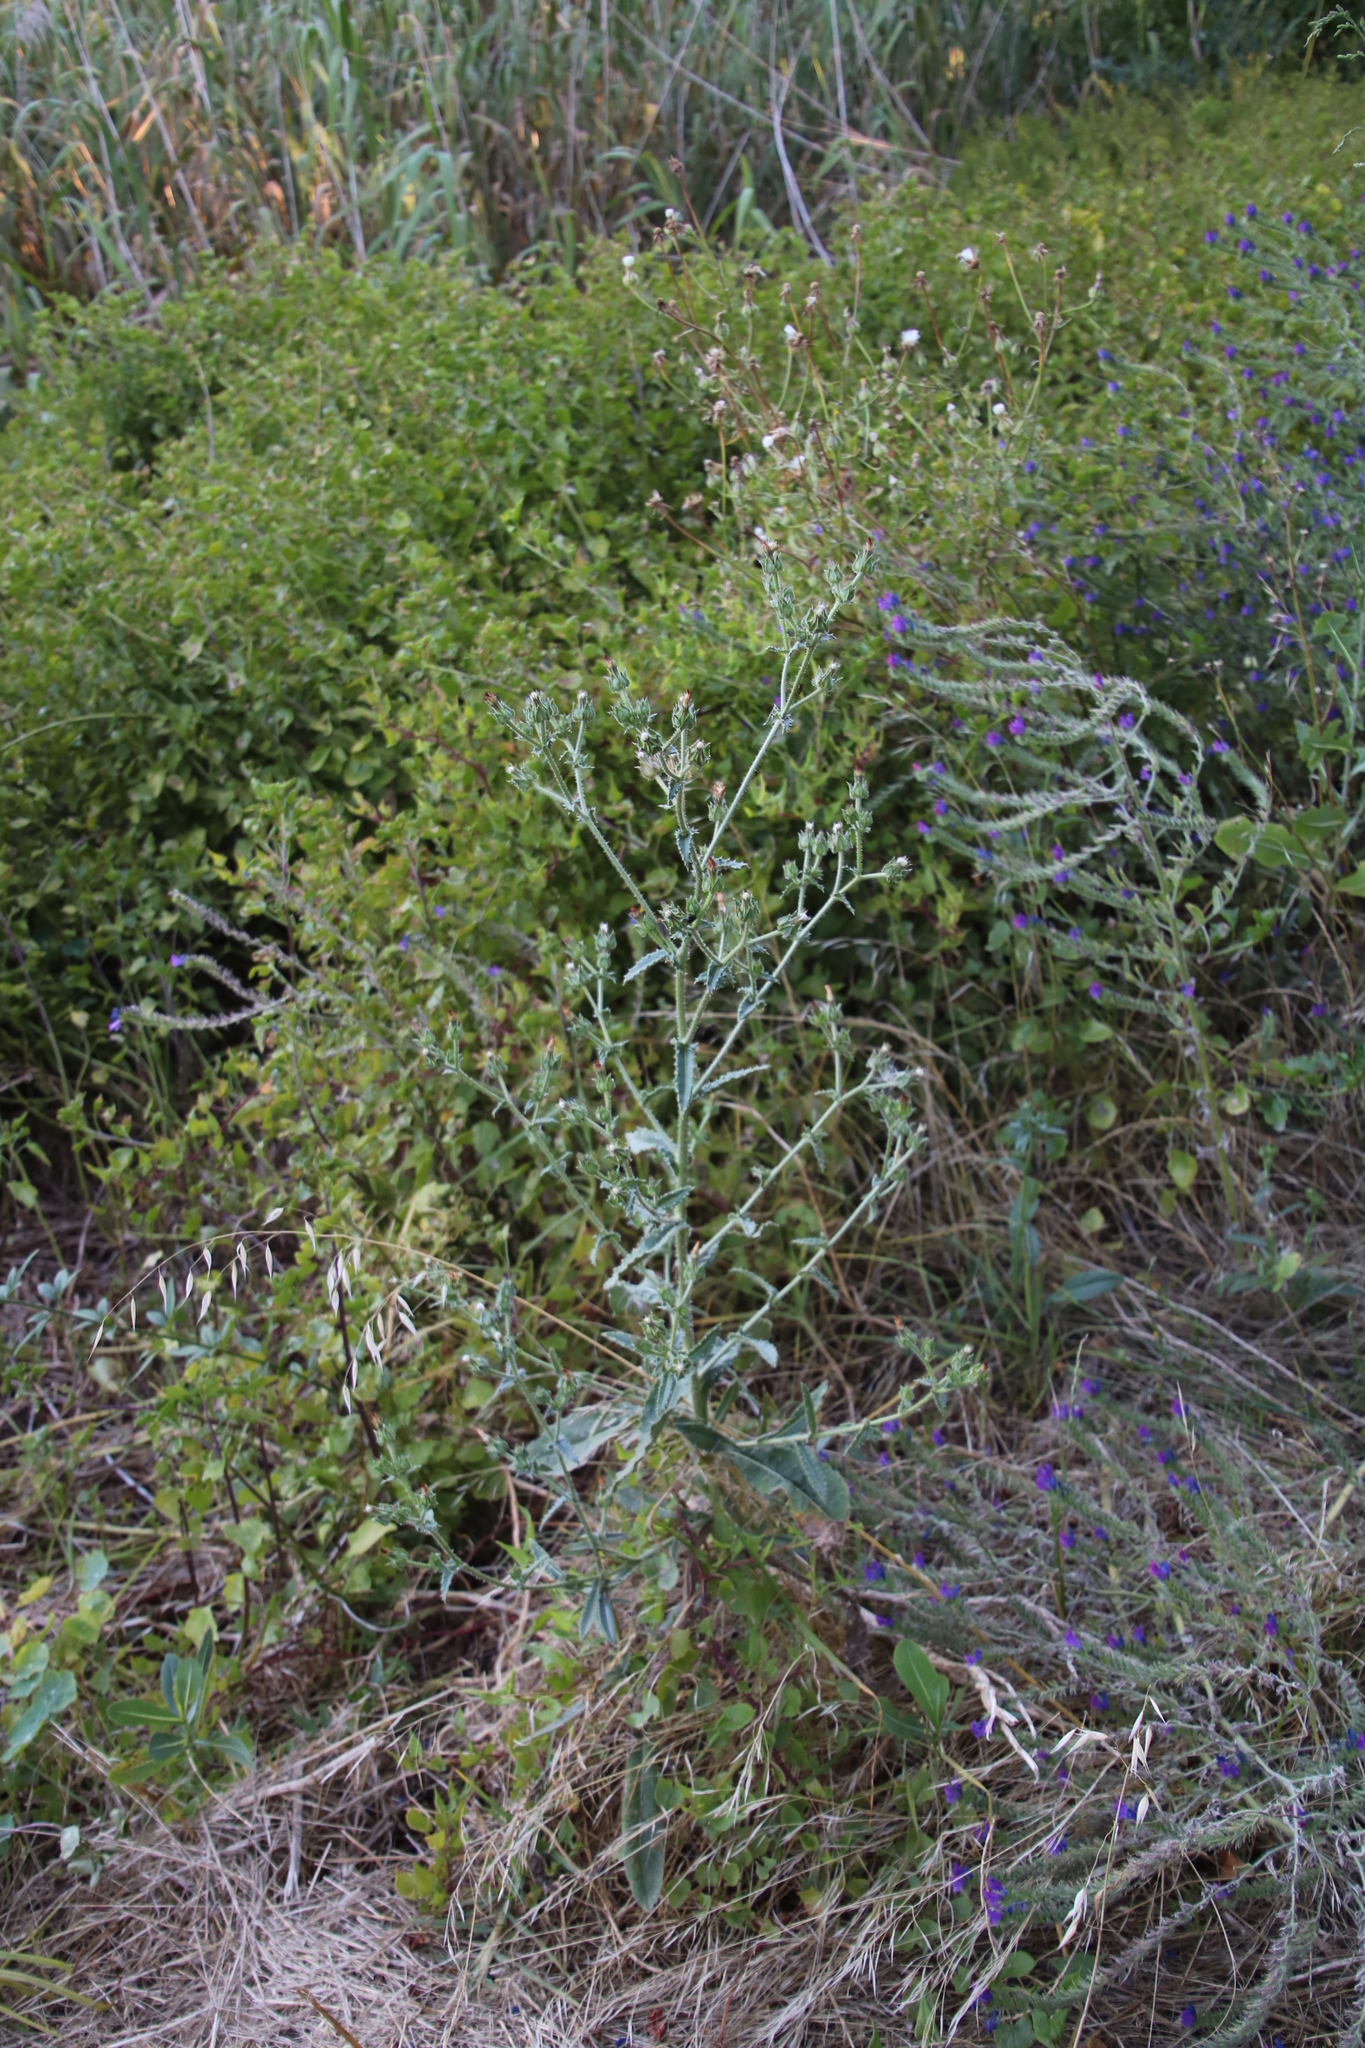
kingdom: Plantae
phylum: Tracheophyta
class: Magnoliopsida
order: Asterales
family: Asteraceae
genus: Helminthotheca
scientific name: Helminthotheca echioides
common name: Ox-tongue
